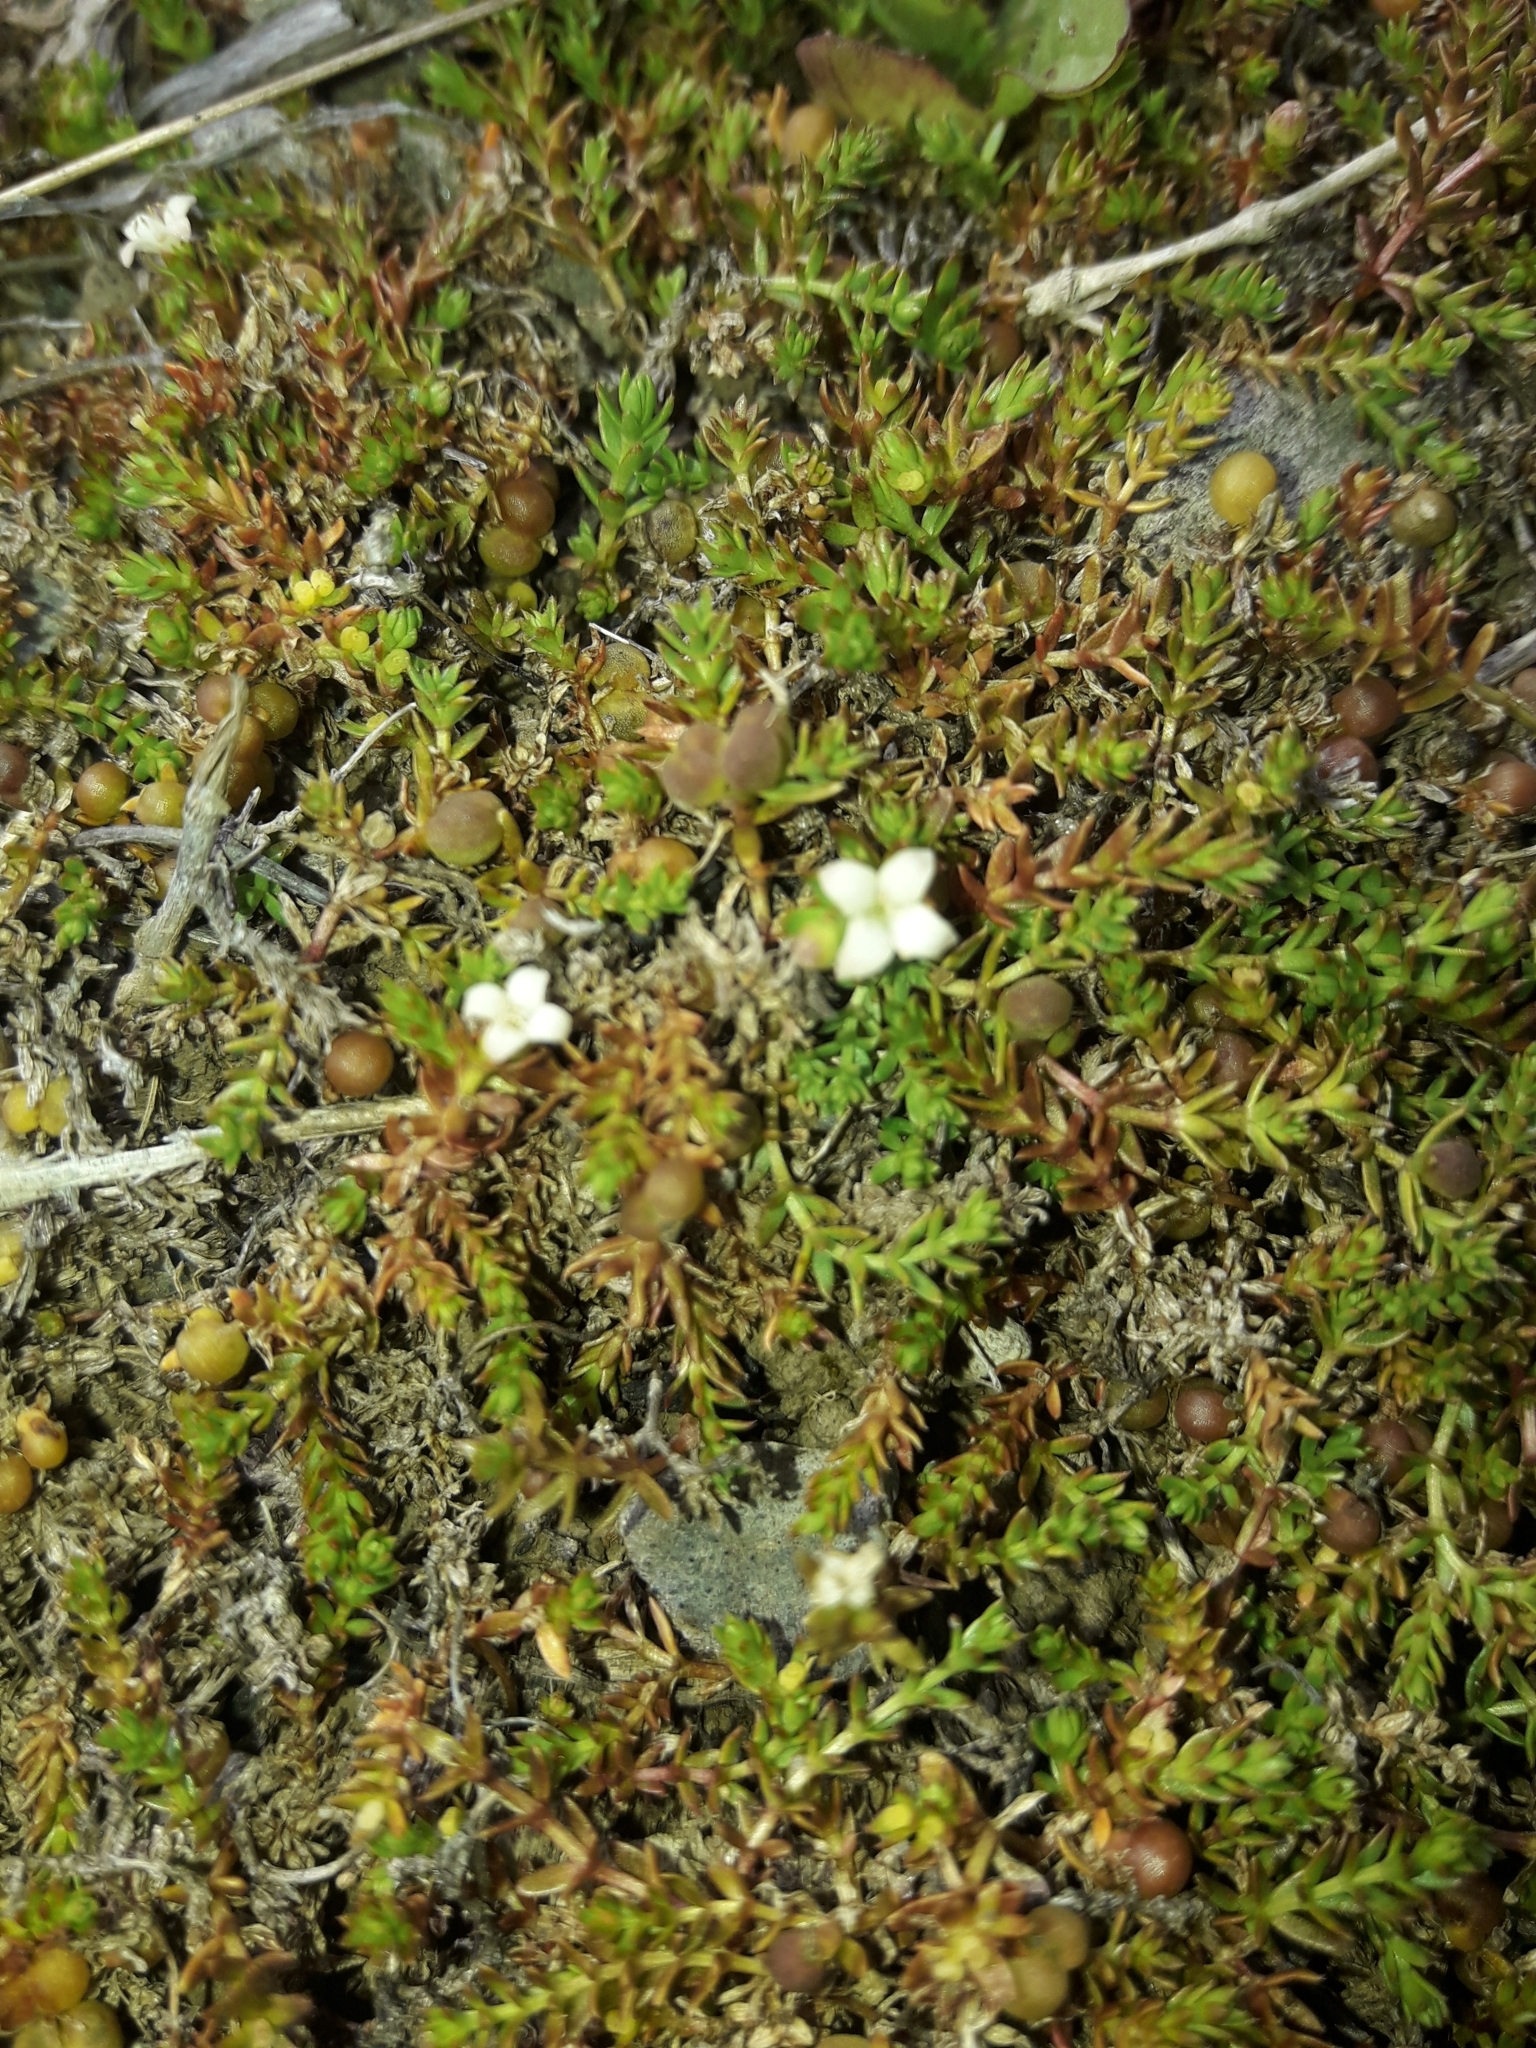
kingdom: Plantae
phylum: Tracheophyta
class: Magnoliopsida
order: Gentianales
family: Rubiaceae
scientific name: Rubiaceae
